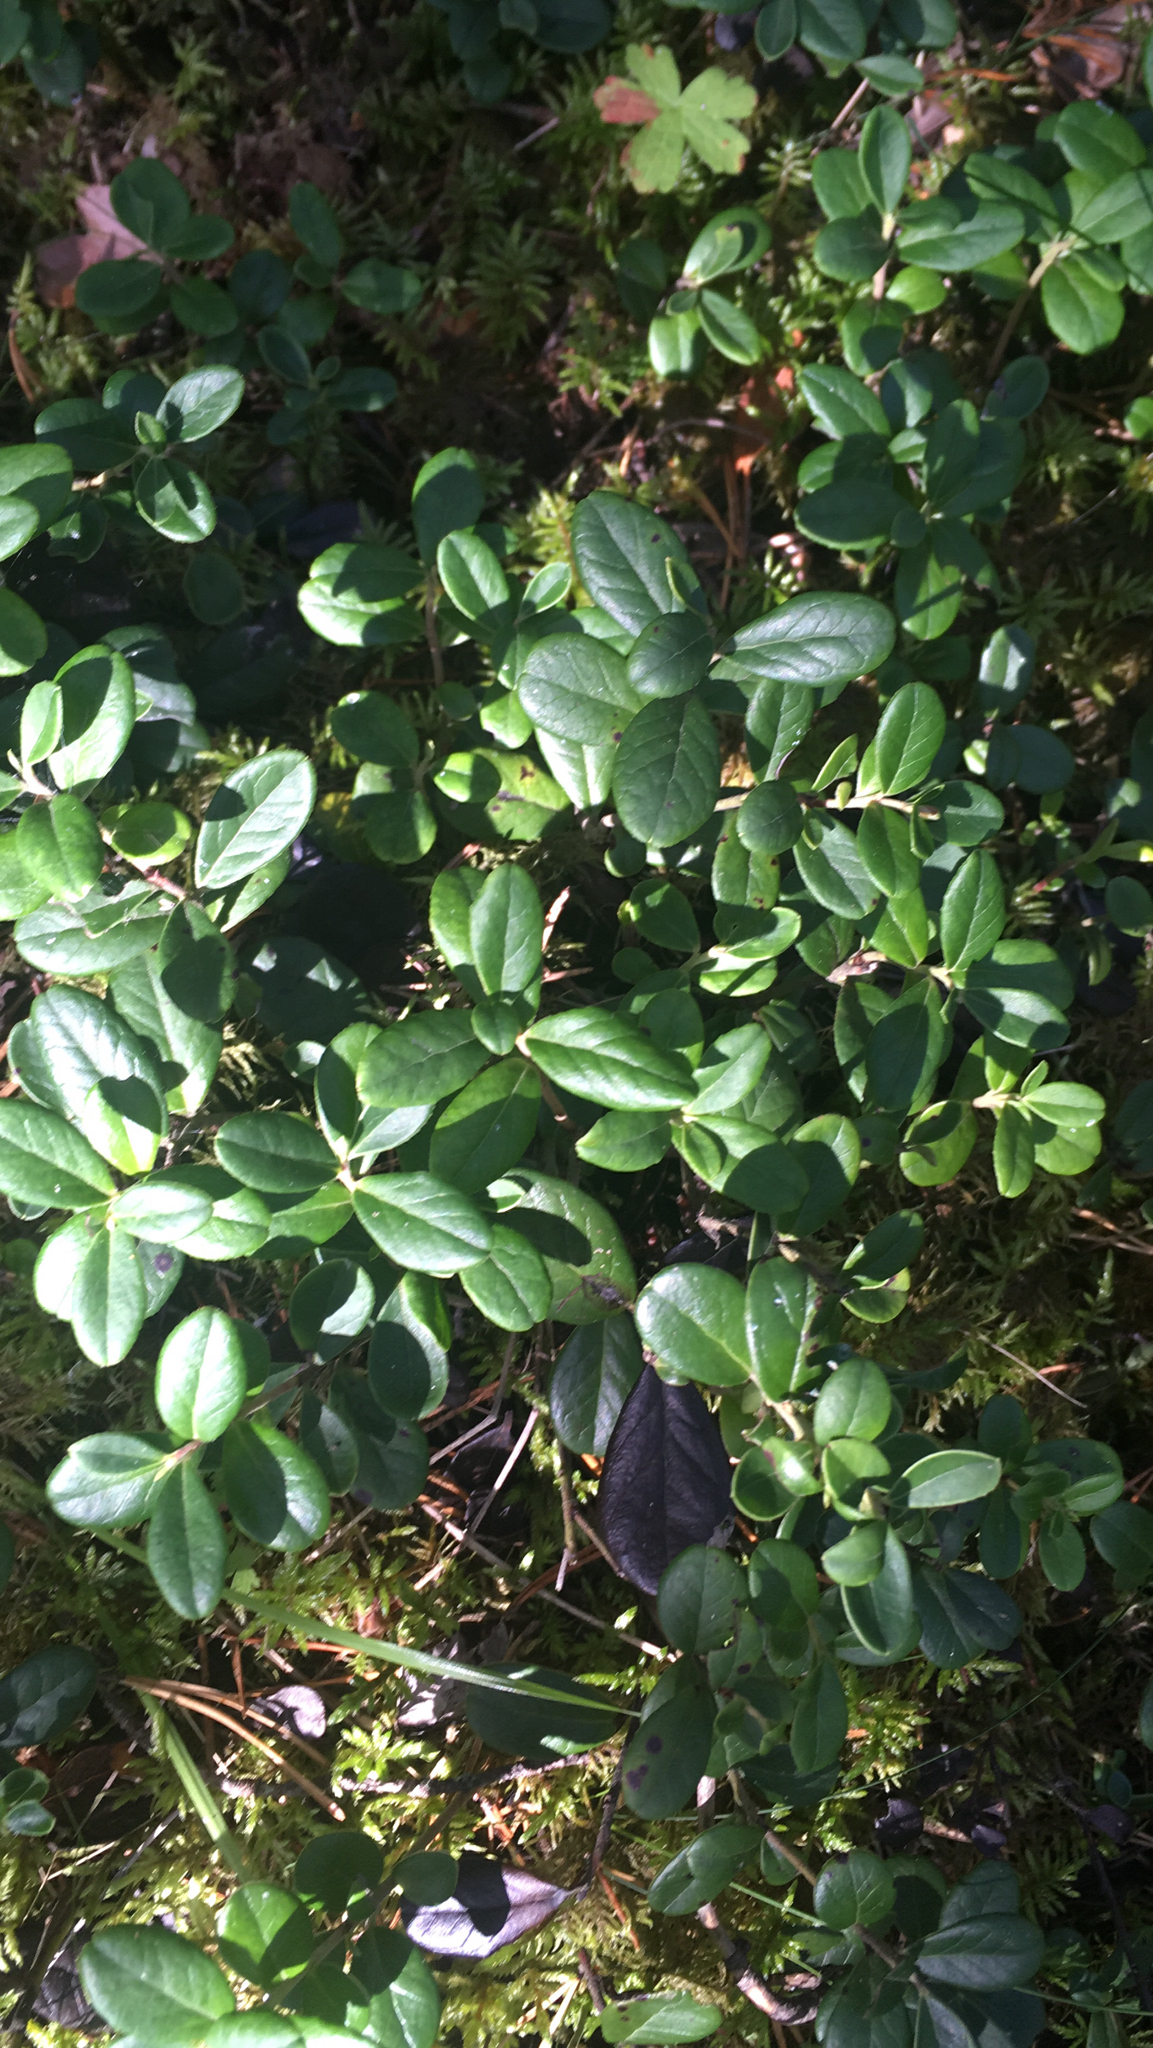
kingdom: Plantae
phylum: Tracheophyta
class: Magnoliopsida
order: Ericales
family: Ericaceae
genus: Vaccinium
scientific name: Vaccinium vitis-idaea
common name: Cowberry
